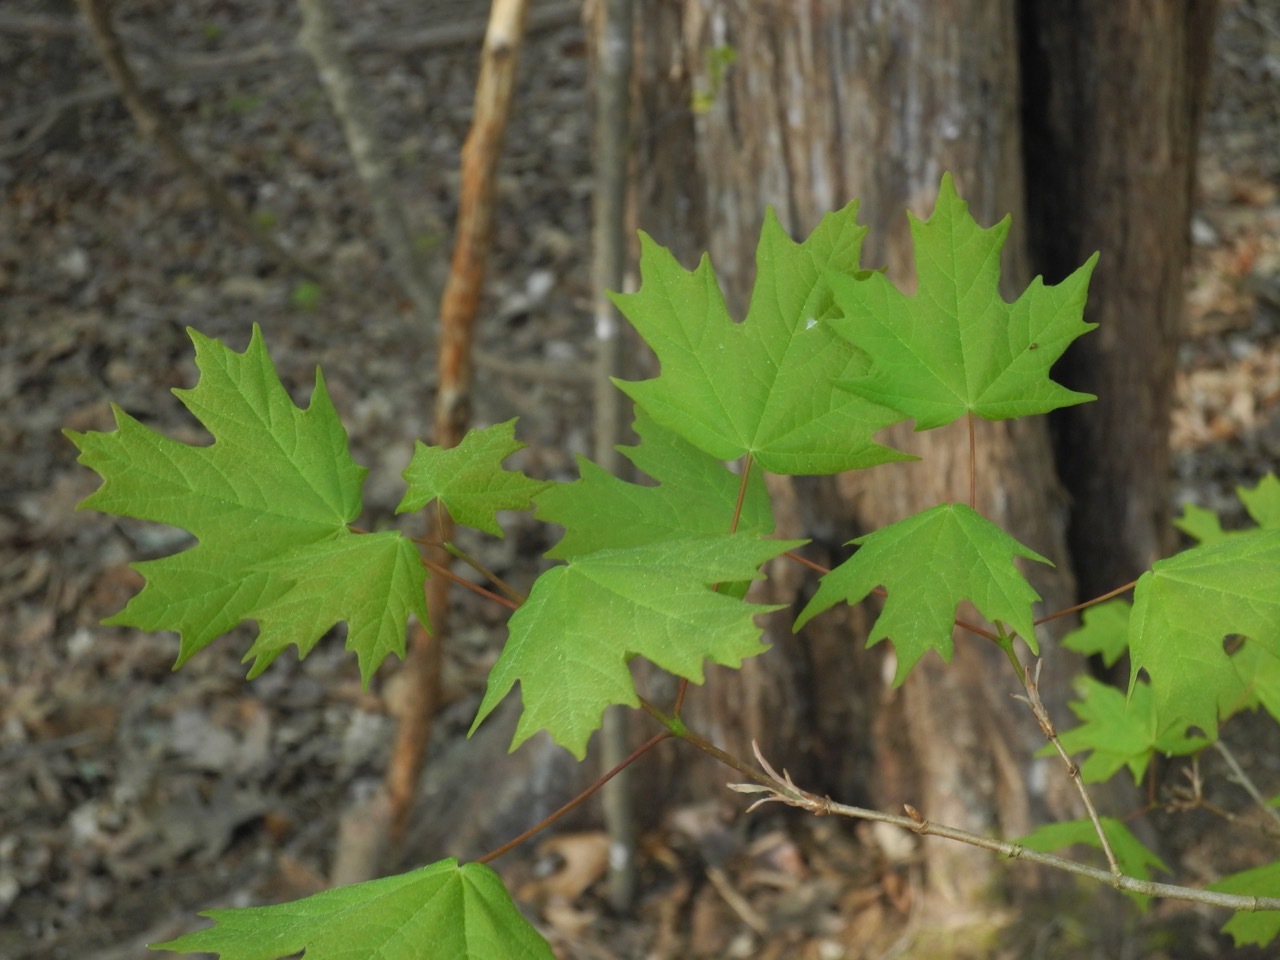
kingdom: Plantae
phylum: Tracheophyta
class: Magnoliopsida
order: Sapindales
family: Sapindaceae
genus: Acer
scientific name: Acer floridanum
